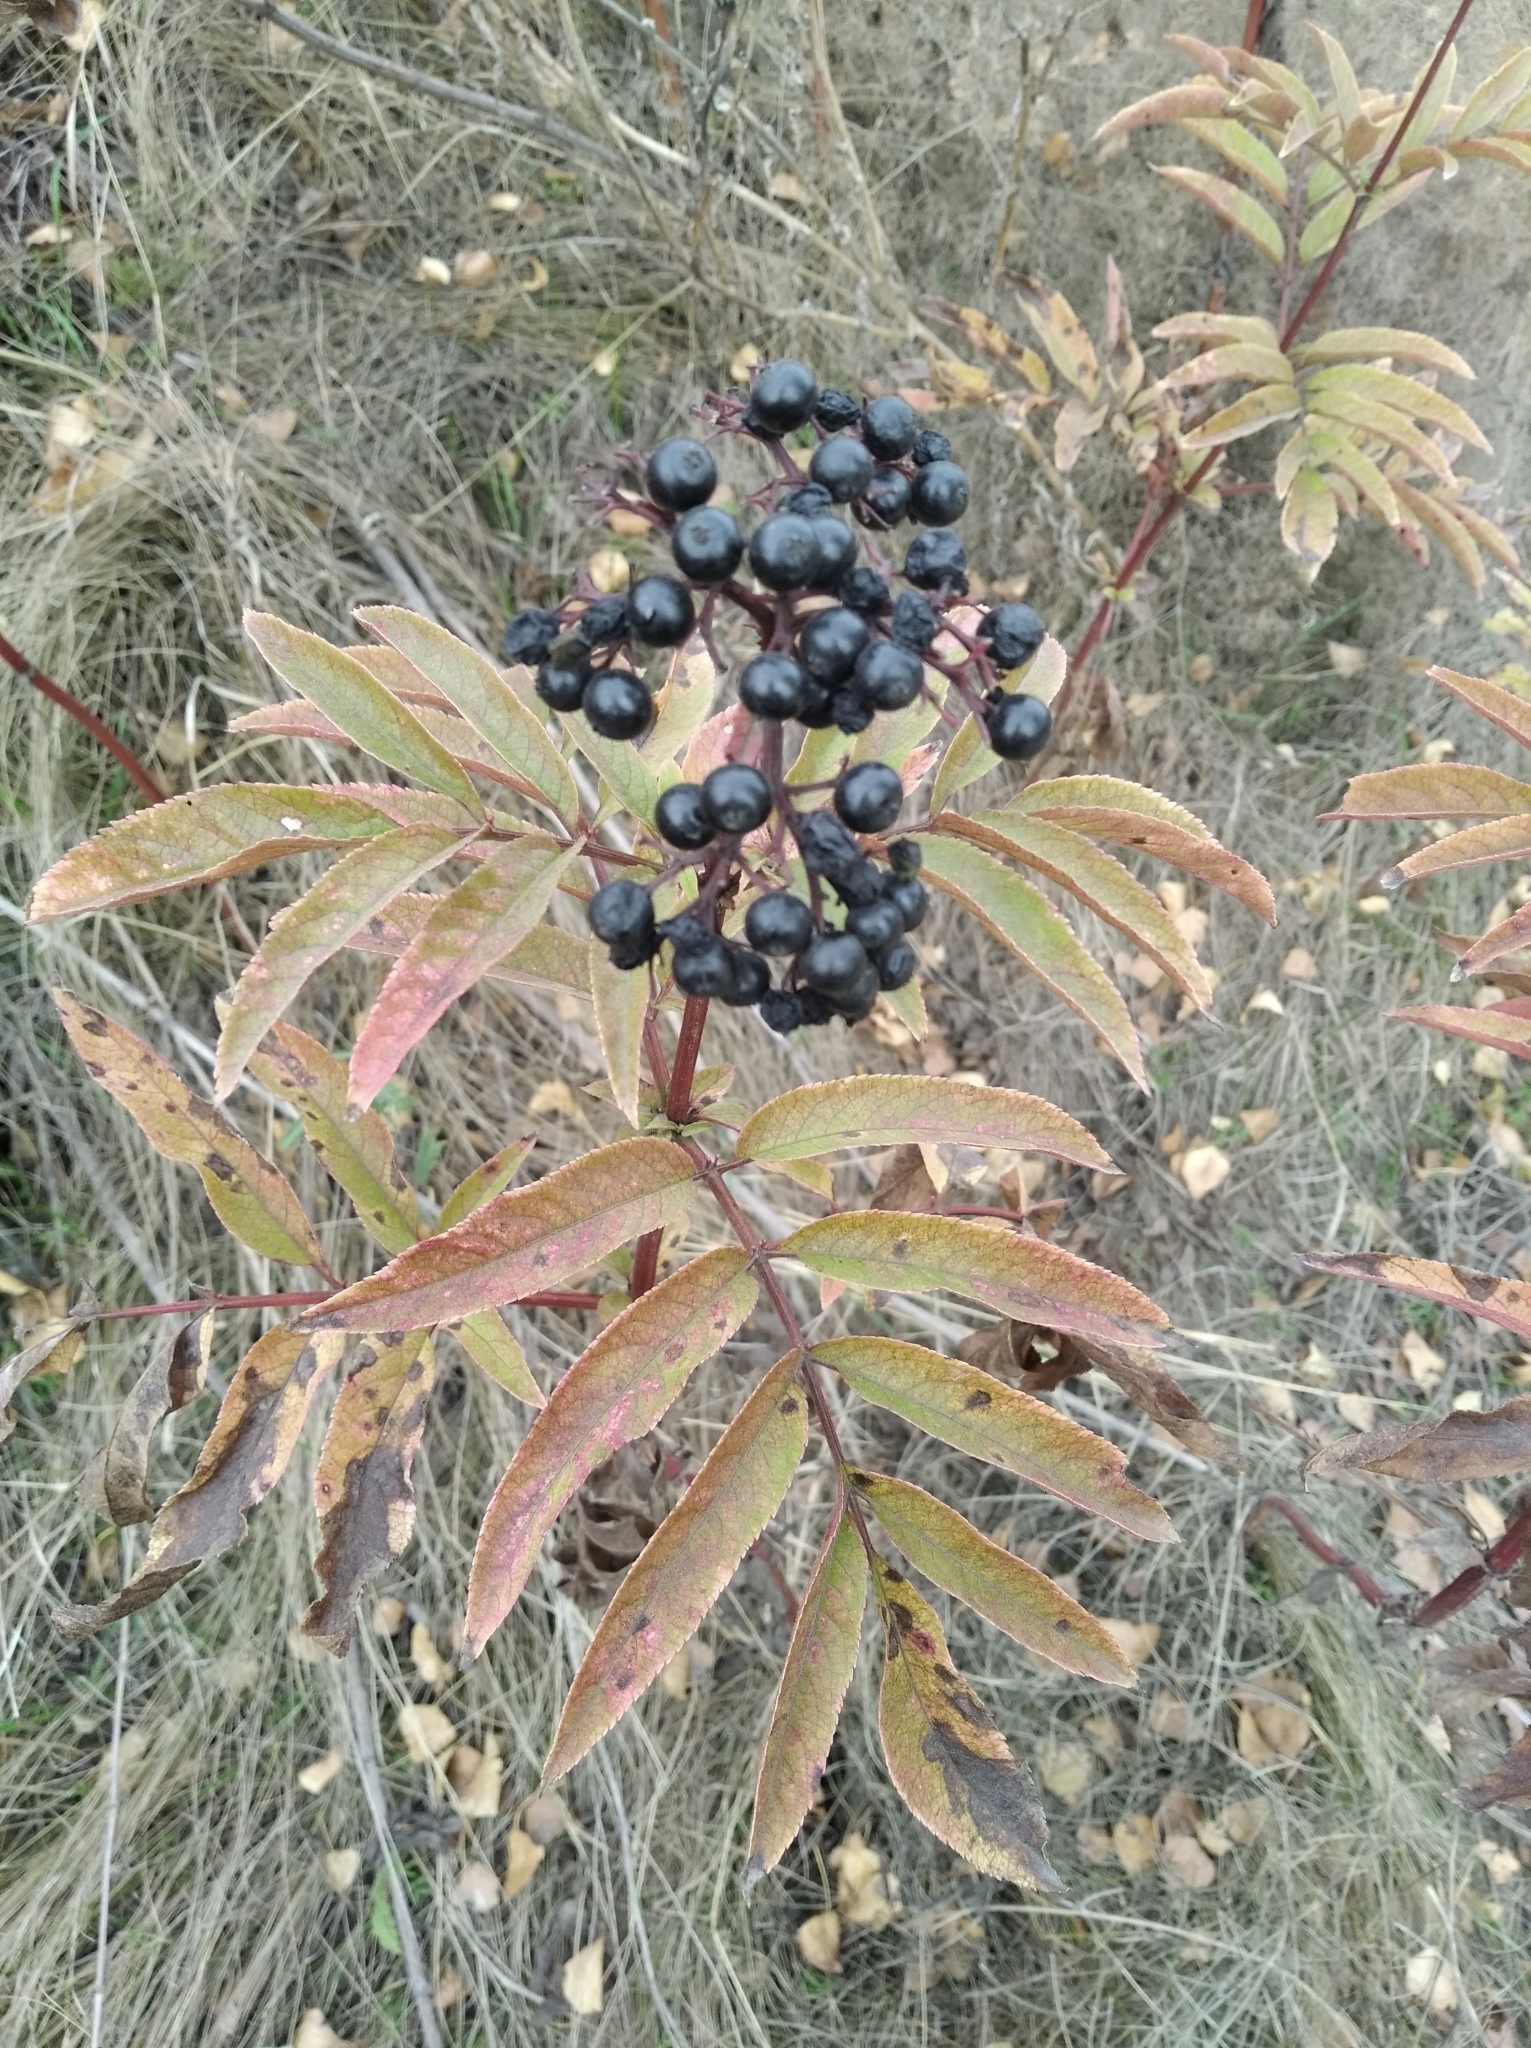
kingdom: Plantae
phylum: Tracheophyta
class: Magnoliopsida
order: Dipsacales
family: Viburnaceae
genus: Sambucus
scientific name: Sambucus ebulus
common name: Dwarf elder
